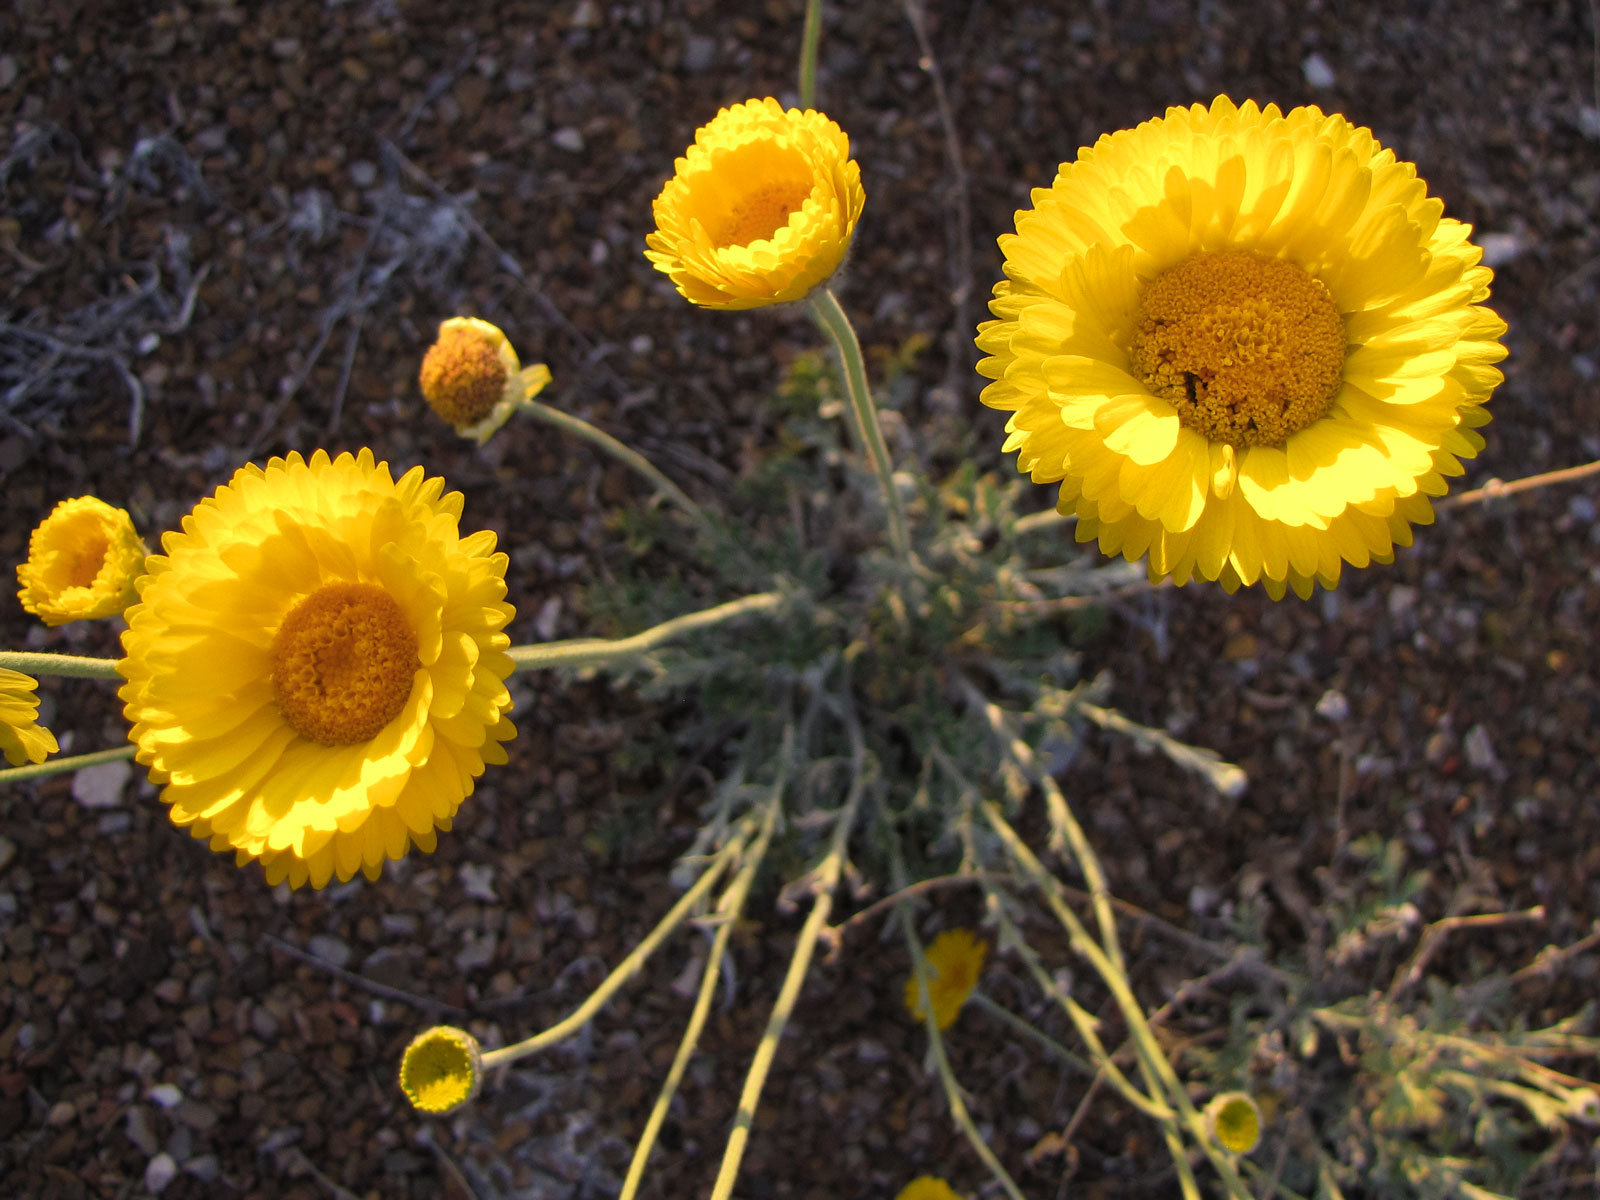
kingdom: Plantae
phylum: Tracheophyta
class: Magnoliopsida
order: Asterales
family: Asteraceae
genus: Baileya
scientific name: Baileya multiradiata
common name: Desert-marigold
